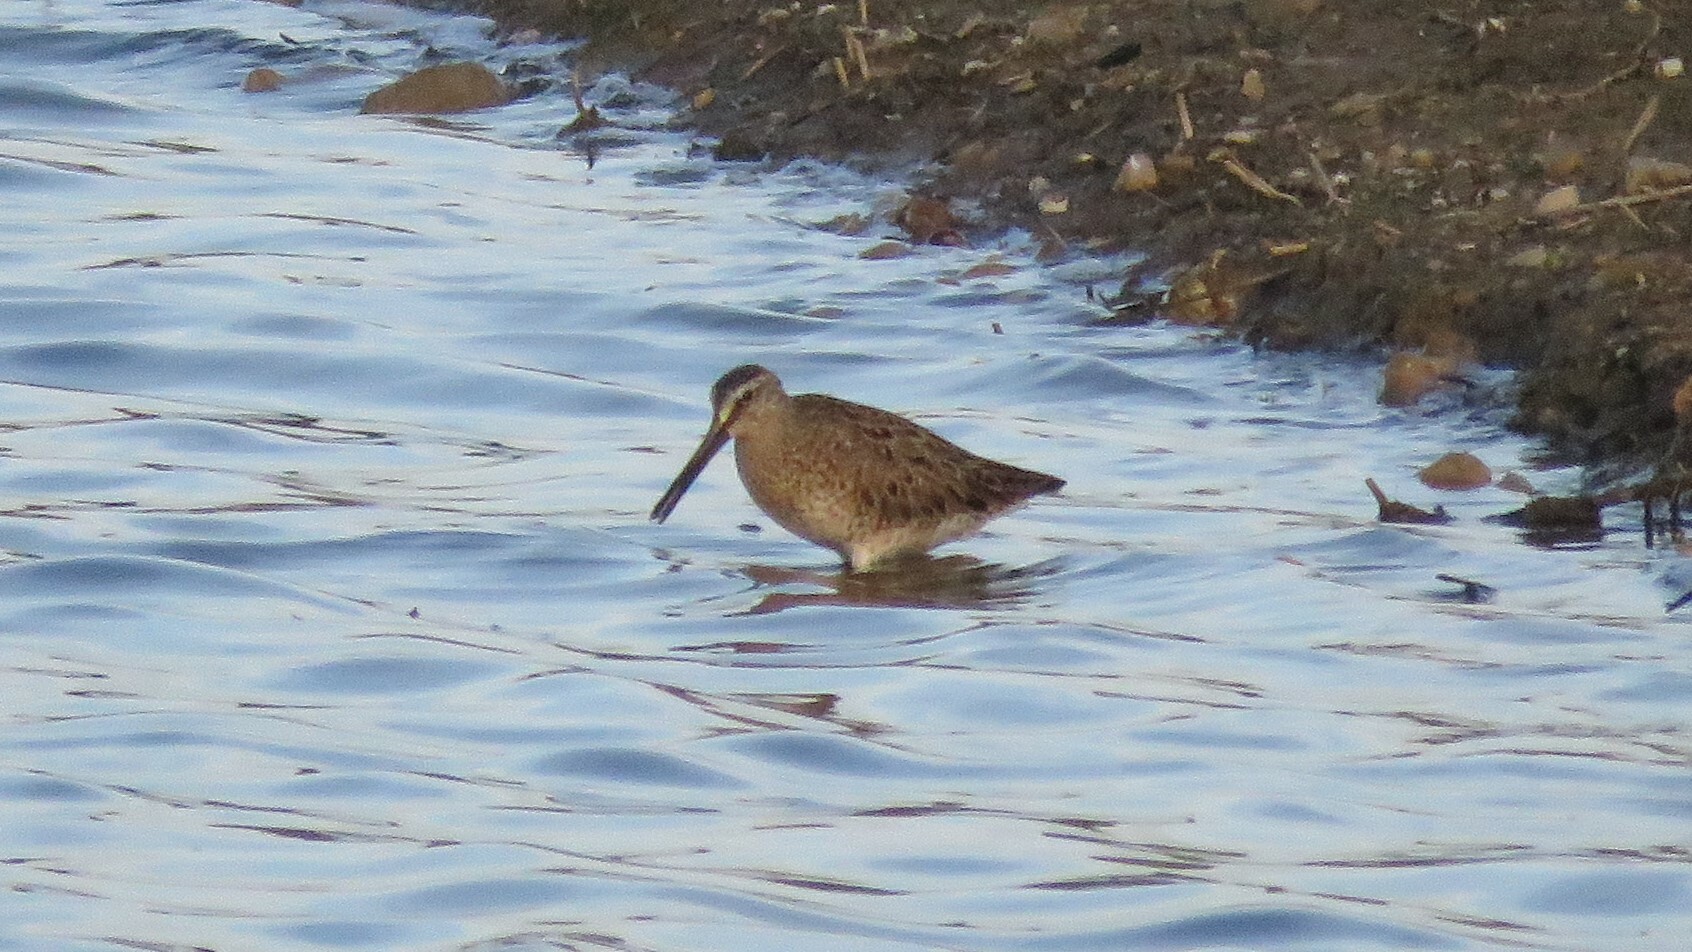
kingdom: Animalia
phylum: Chordata
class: Aves
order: Charadriiformes
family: Scolopacidae
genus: Limnodromus
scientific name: Limnodromus griseus
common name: Short-billed dowitcher
